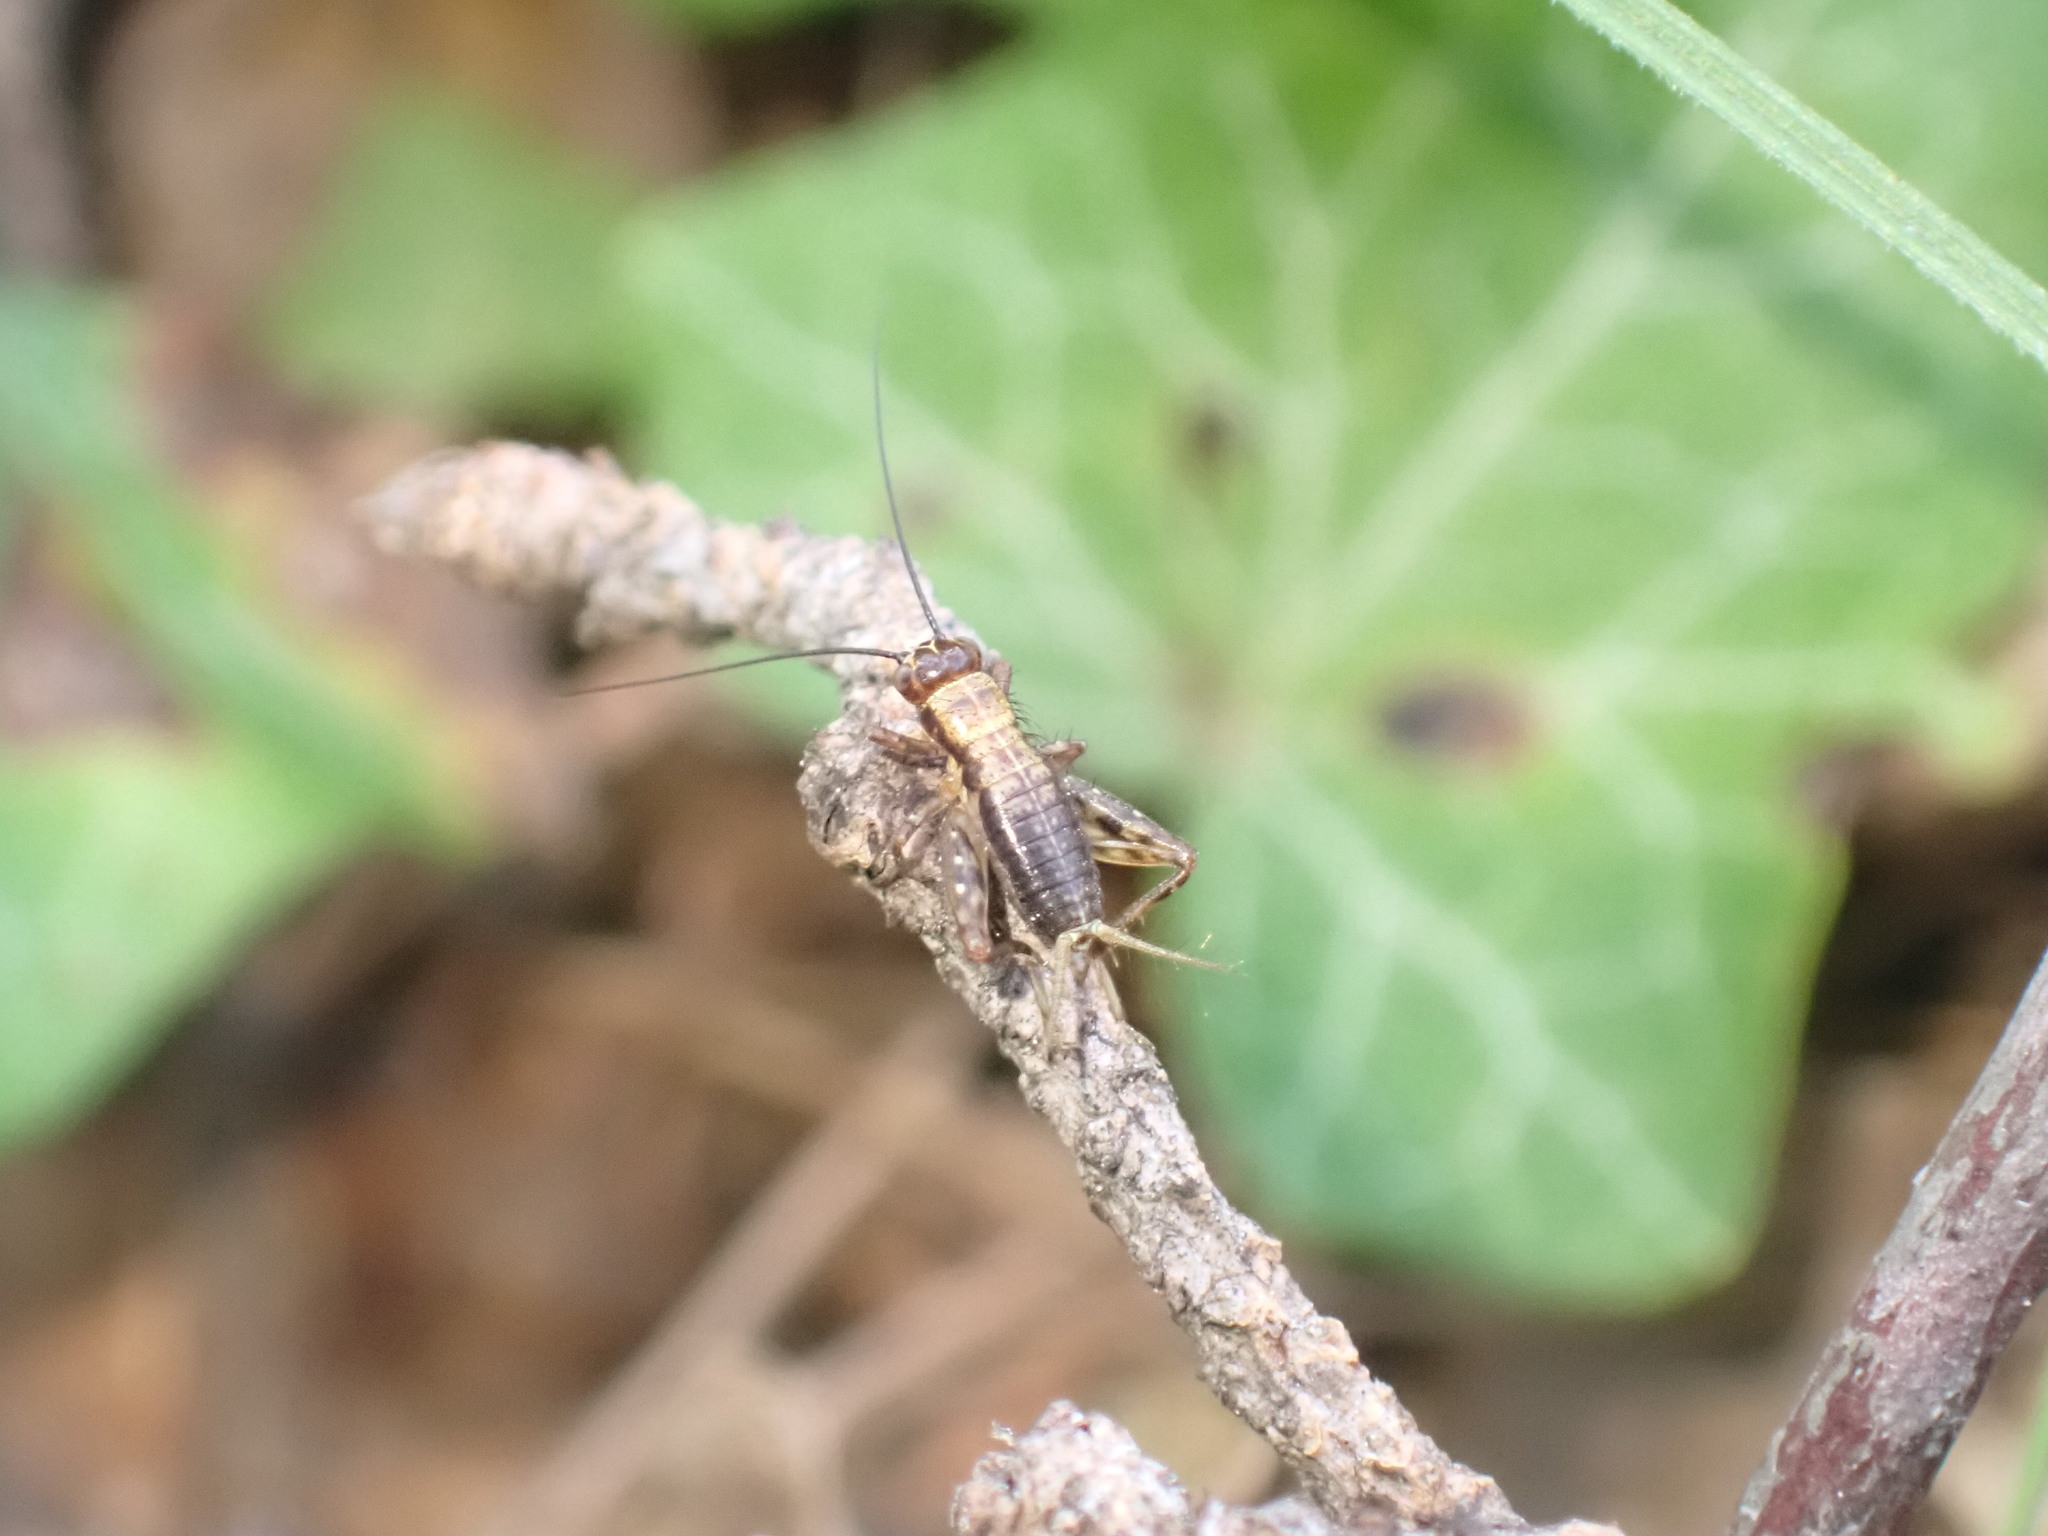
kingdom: Animalia
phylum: Arthropoda
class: Insecta
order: Orthoptera
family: Trigonidiidae
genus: Nemobius
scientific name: Nemobius sylvestris
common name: Wood-cricket
